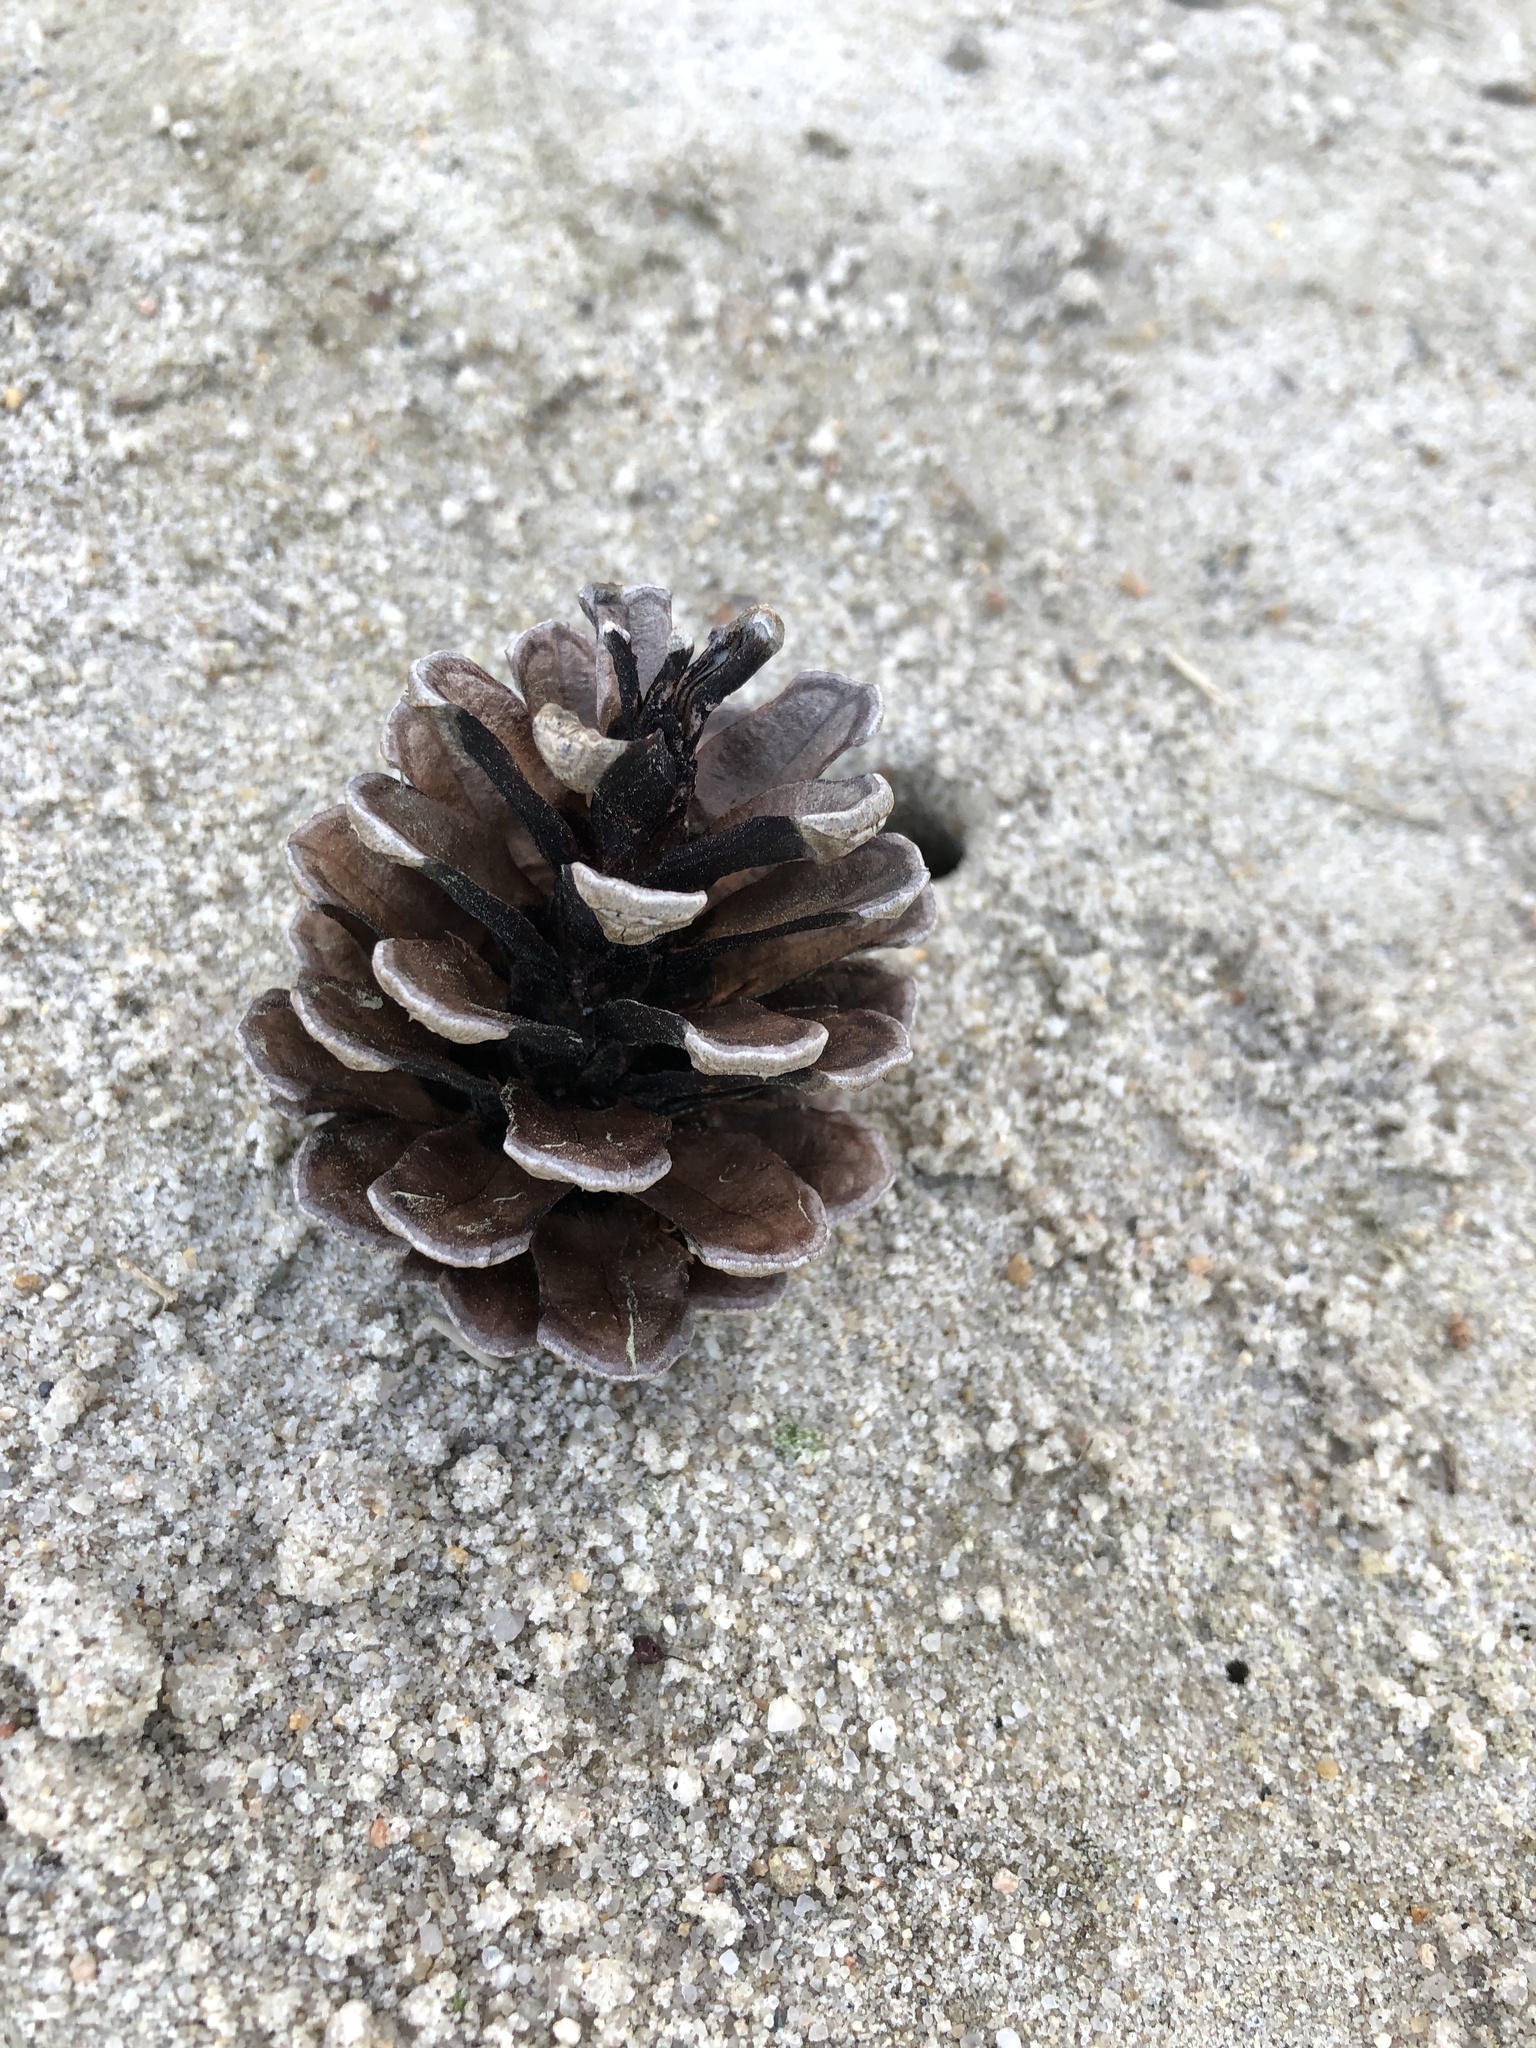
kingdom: Plantae
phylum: Tracheophyta
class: Pinopsida
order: Pinales
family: Pinaceae
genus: Pinus
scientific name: Pinus
